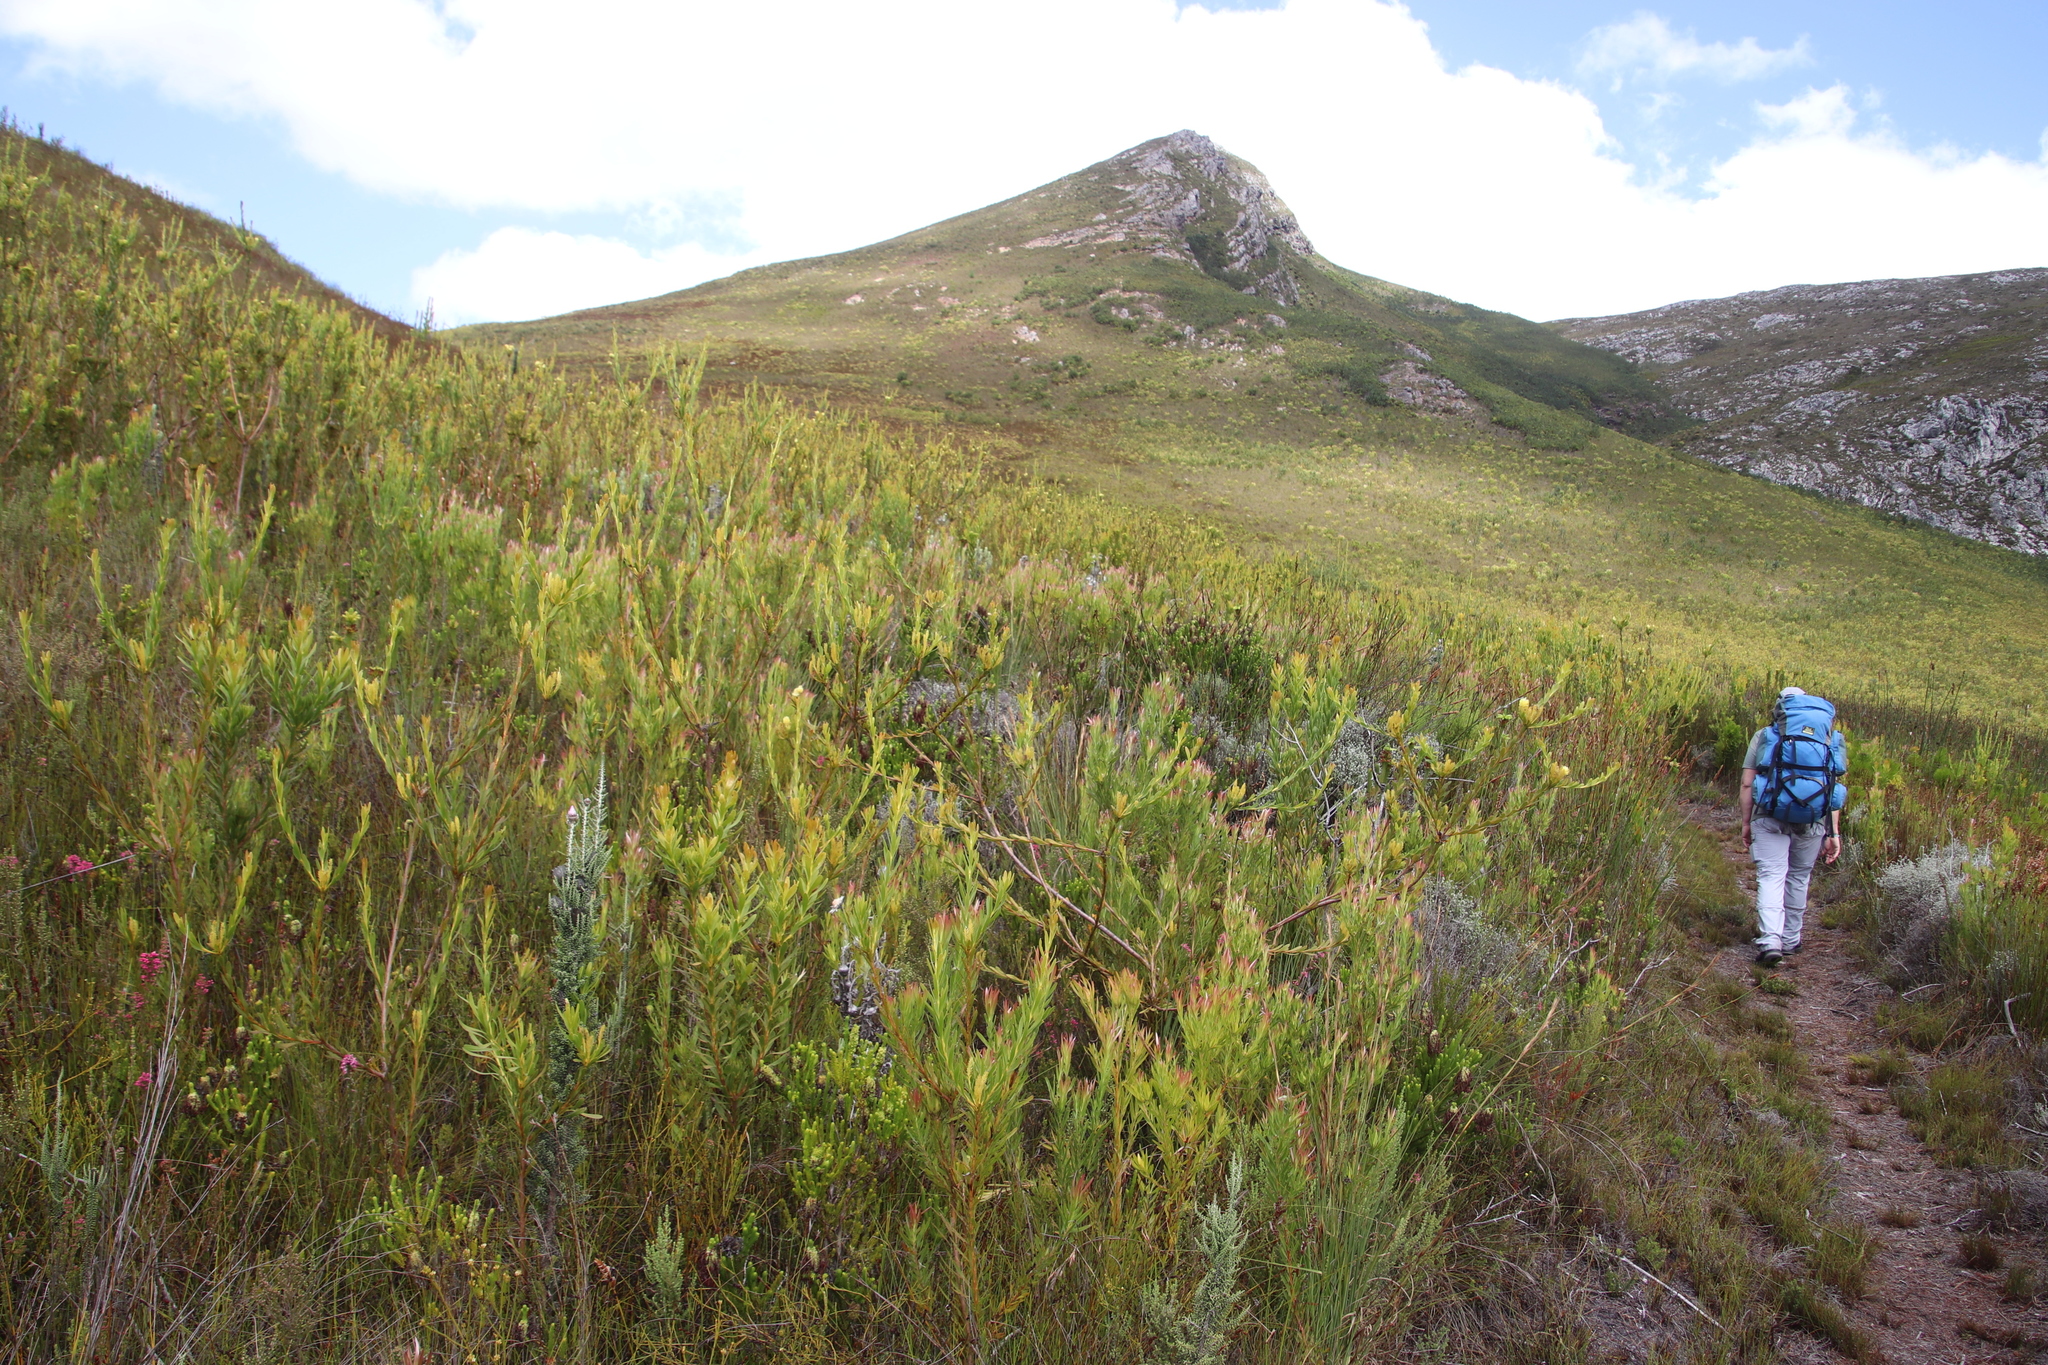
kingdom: Plantae
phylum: Tracheophyta
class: Magnoliopsida
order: Proteales
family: Proteaceae
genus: Aulax
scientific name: Aulax umbellata
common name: Broad-leaf featherbush
